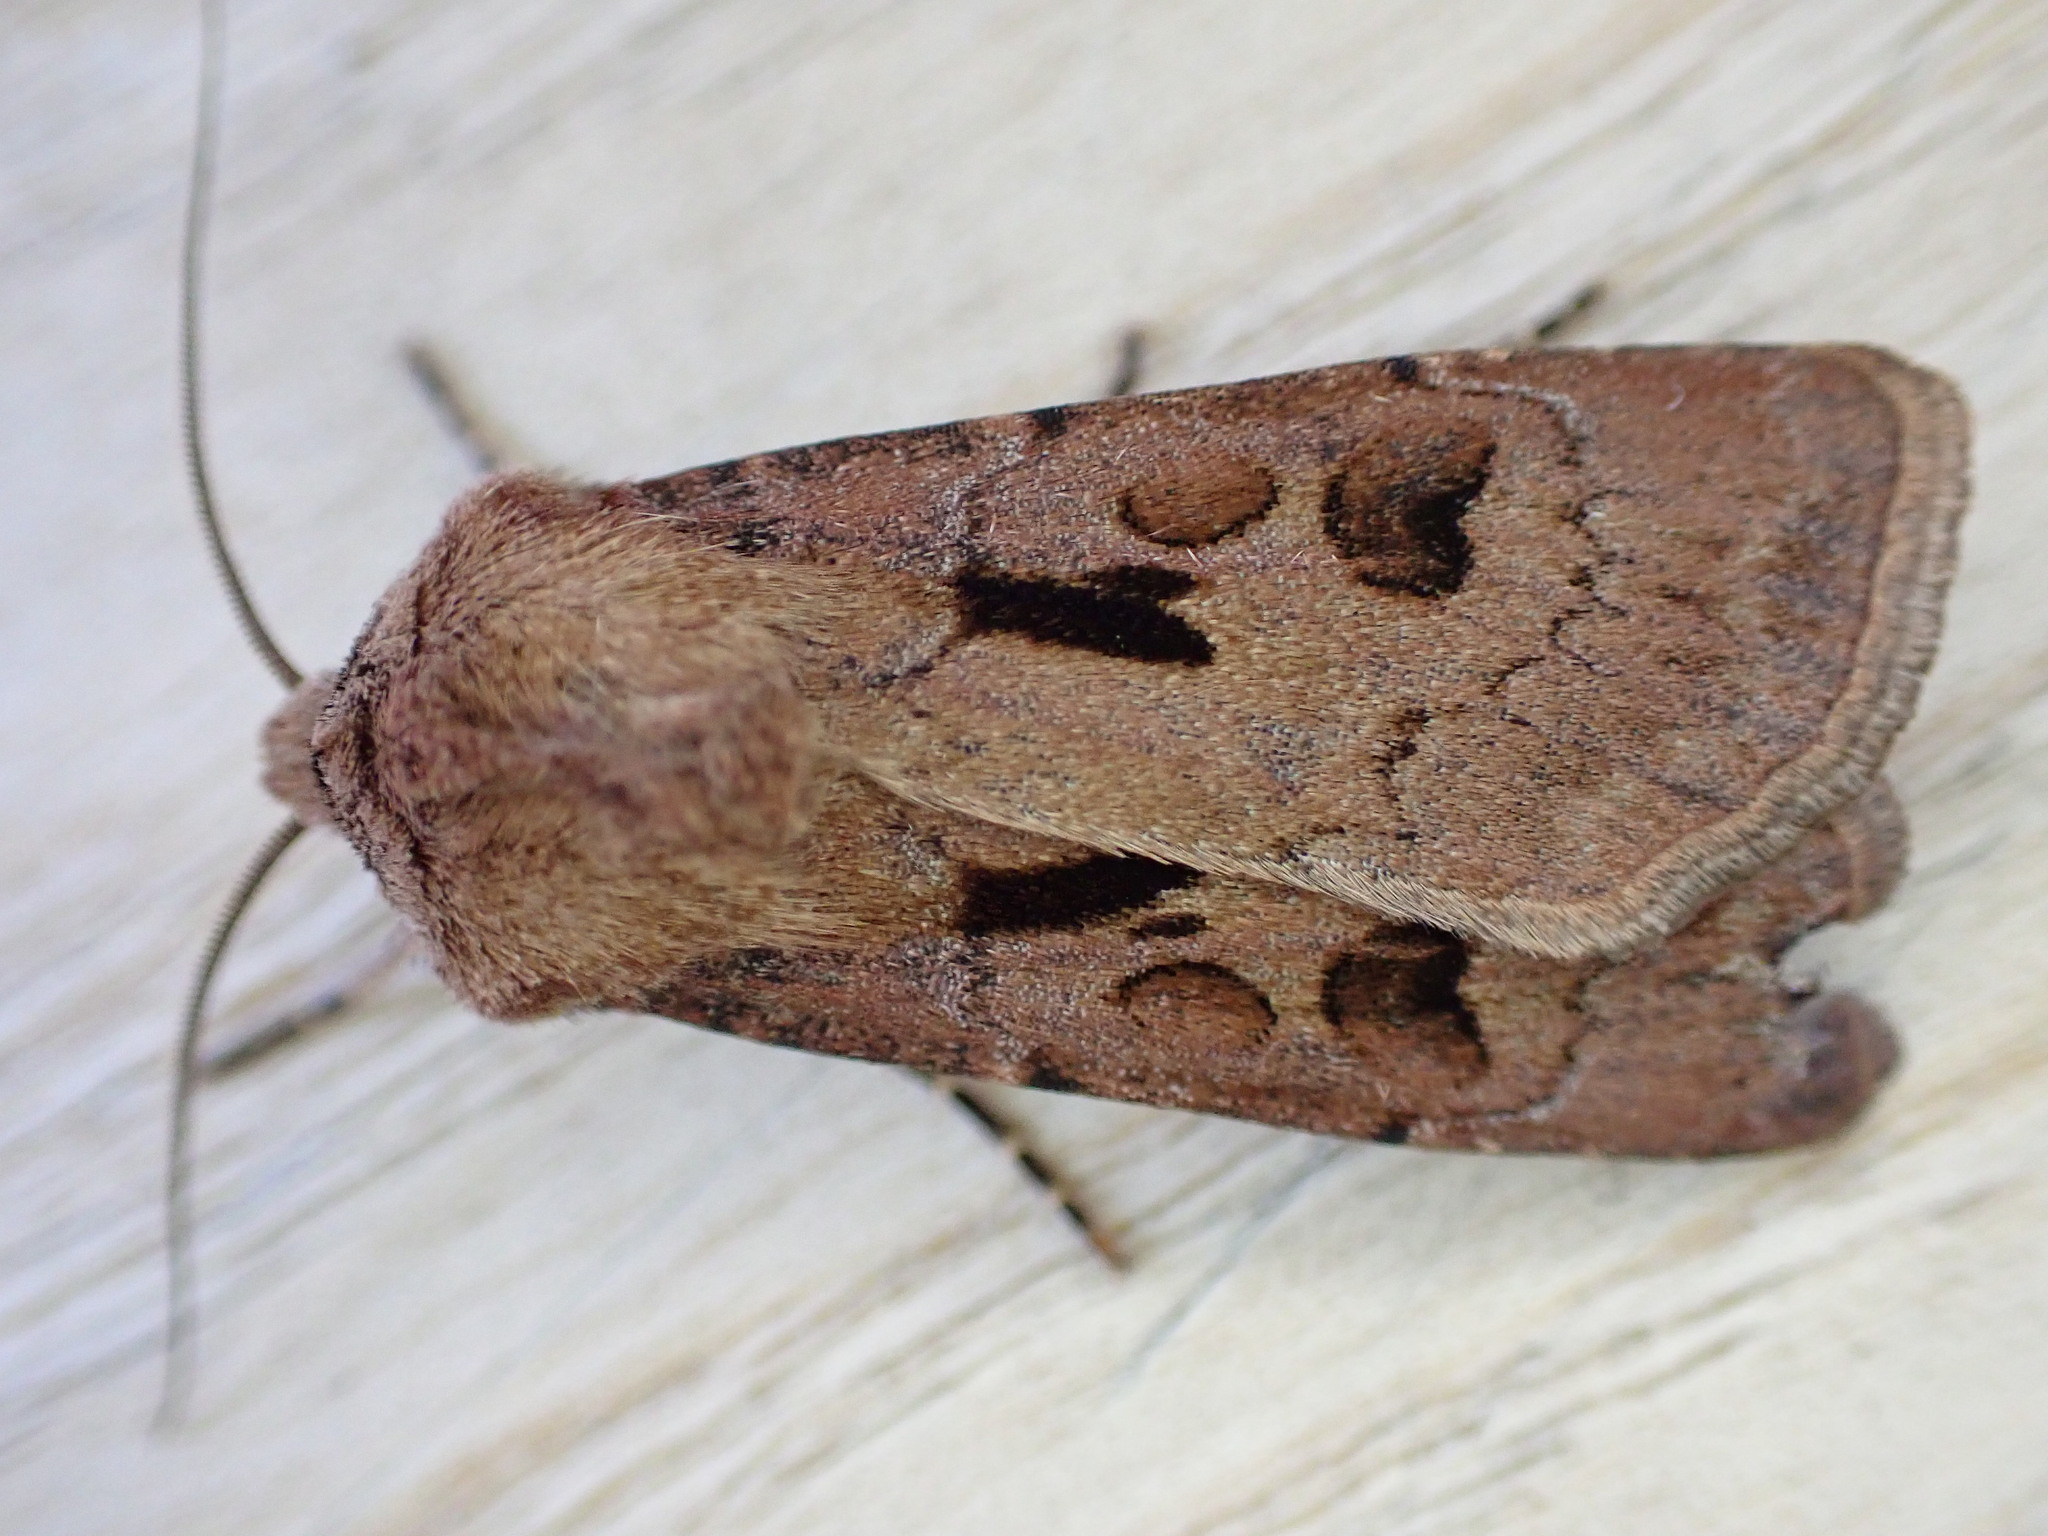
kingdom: Animalia
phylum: Arthropoda
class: Insecta
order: Lepidoptera
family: Noctuidae
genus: Agrotis
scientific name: Agrotis exclamationis
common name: Heart and dart
